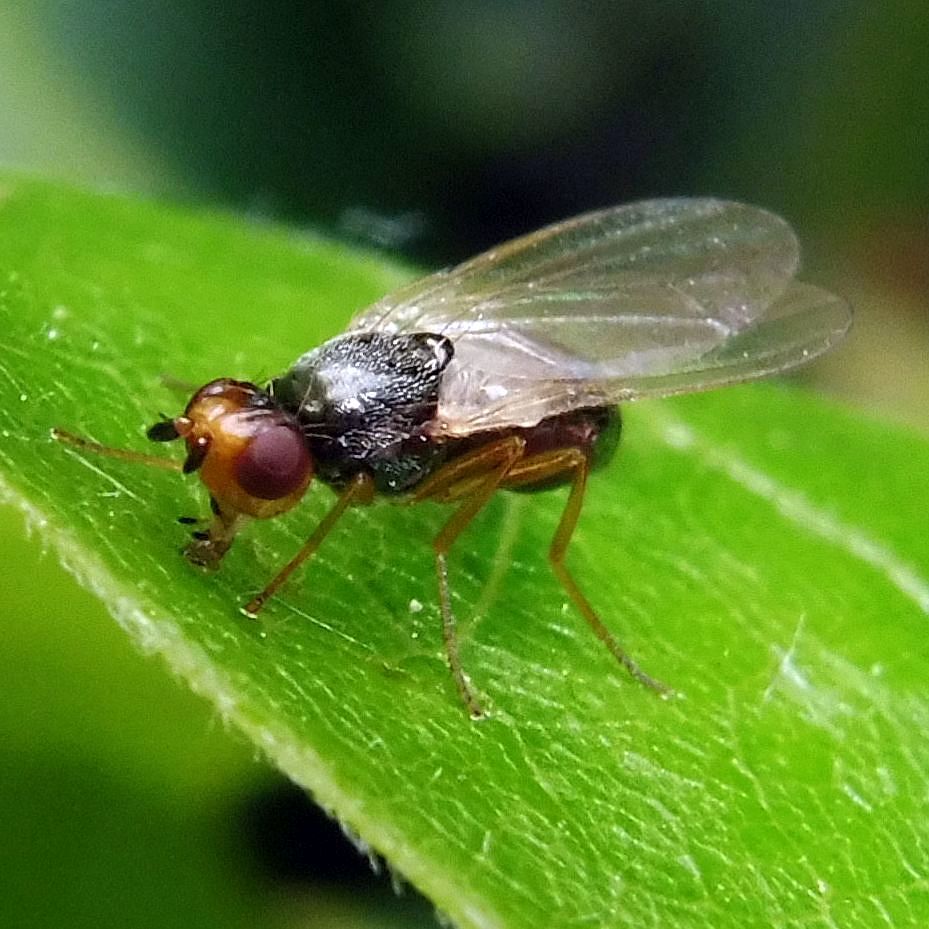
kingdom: Animalia
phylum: Arthropoda
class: Insecta
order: Diptera
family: Psilidae
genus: Psila
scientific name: Psila nigricornis
